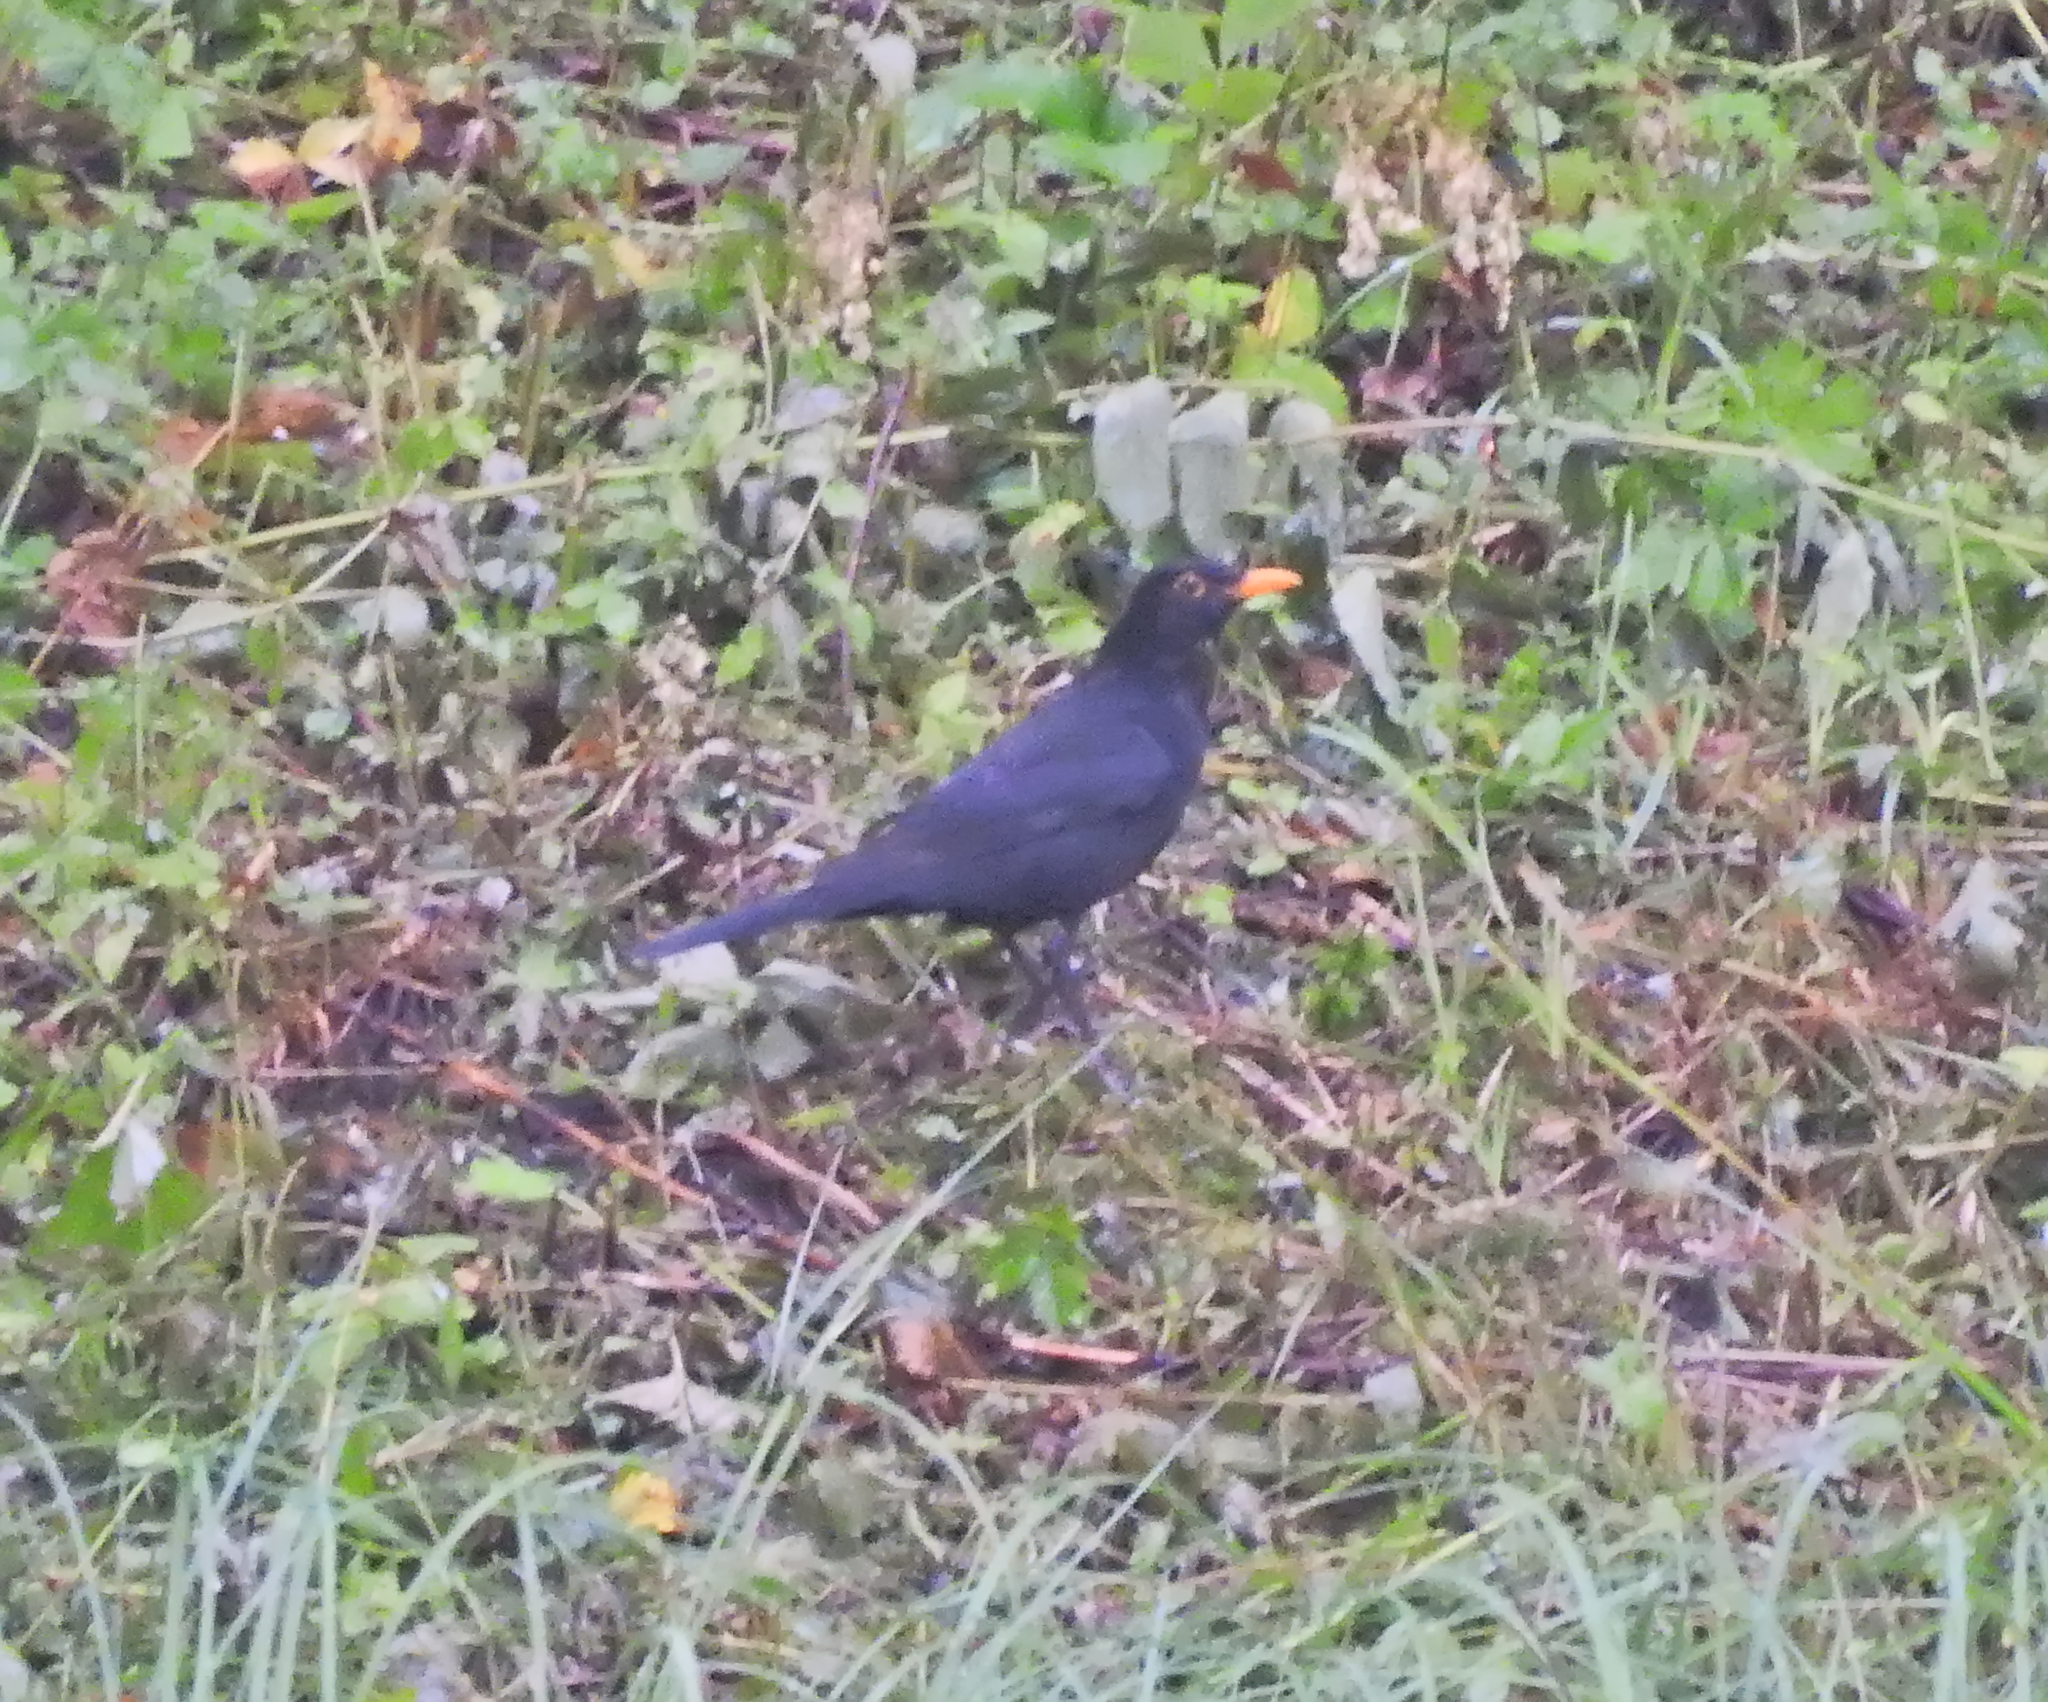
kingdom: Animalia
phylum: Chordata
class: Aves
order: Passeriformes
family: Turdidae
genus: Turdus
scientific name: Turdus merula
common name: Common blackbird
